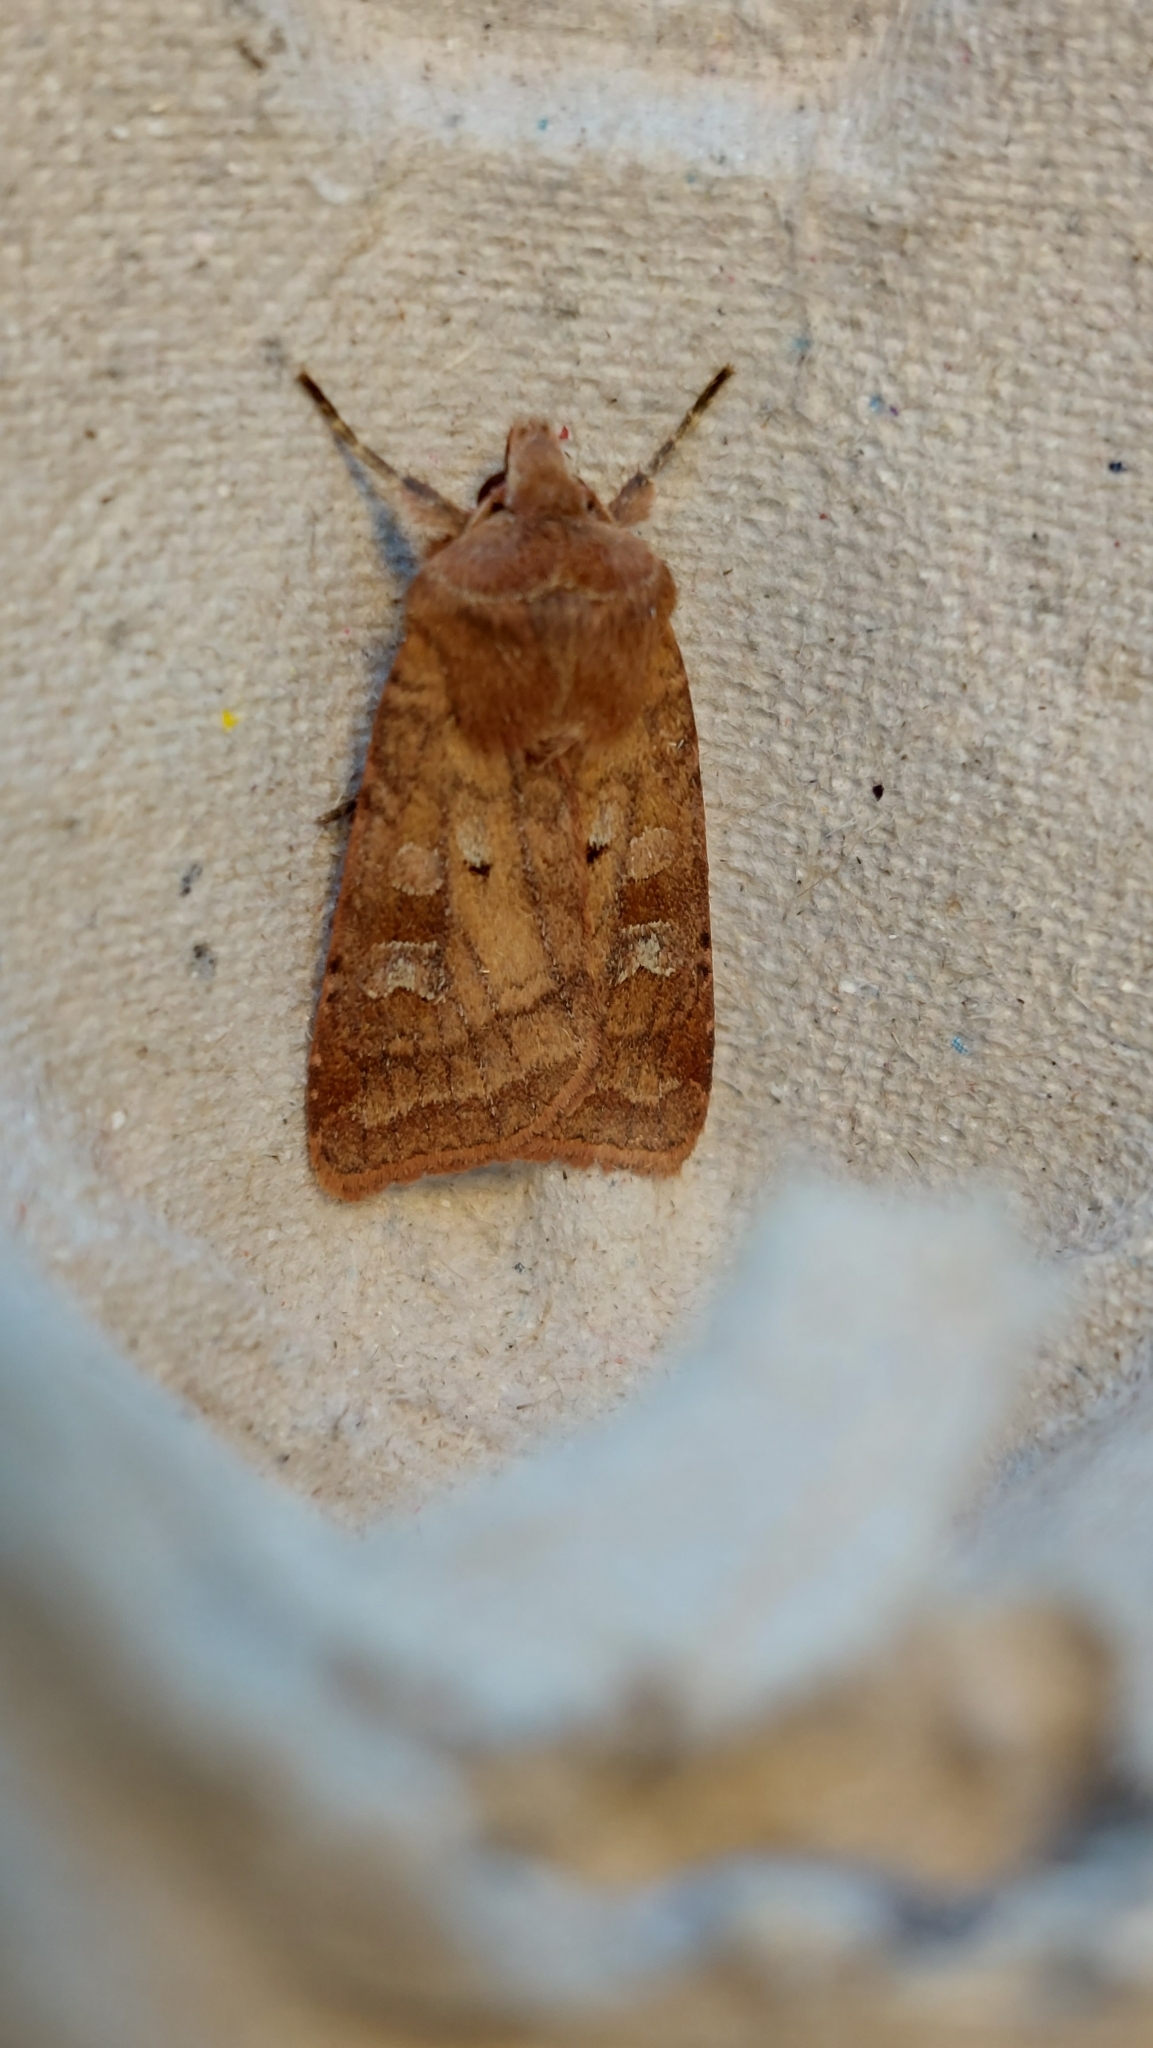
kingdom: Animalia
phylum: Arthropoda
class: Insecta
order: Lepidoptera
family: Noctuidae
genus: Diarsia
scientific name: Diarsia rubi
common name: Small square-spot
